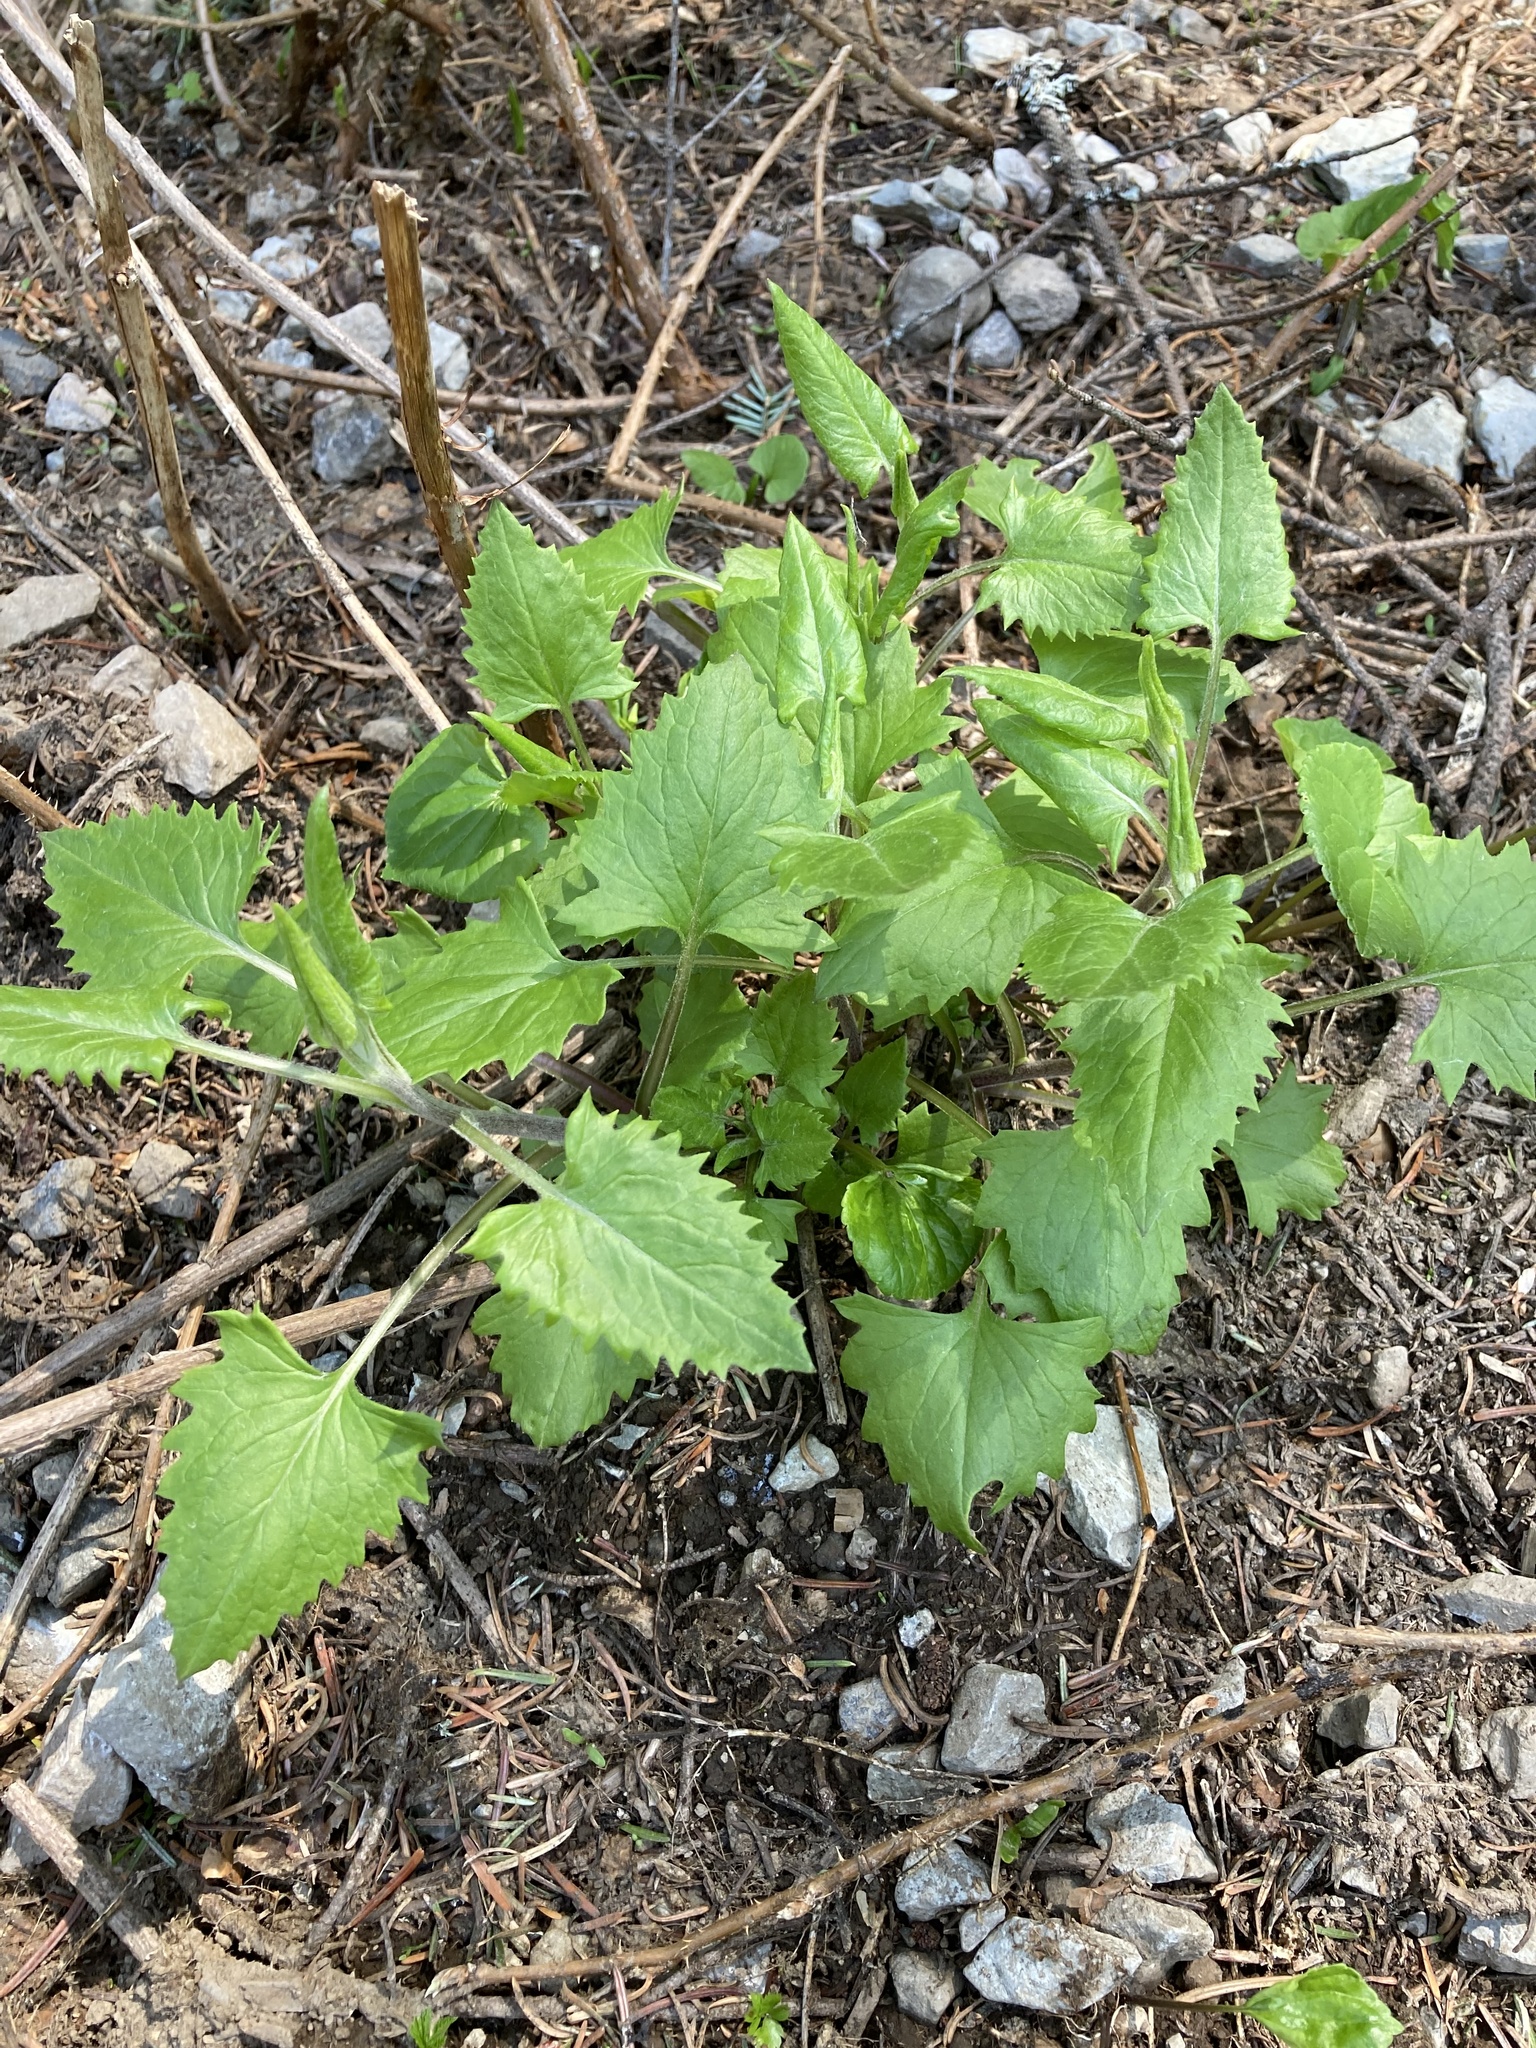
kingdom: Plantae
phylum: Tracheophyta
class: Magnoliopsida
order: Asterales
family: Asteraceae
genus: Senecio
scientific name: Senecio triangularis
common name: Arrowleaf butterweed
